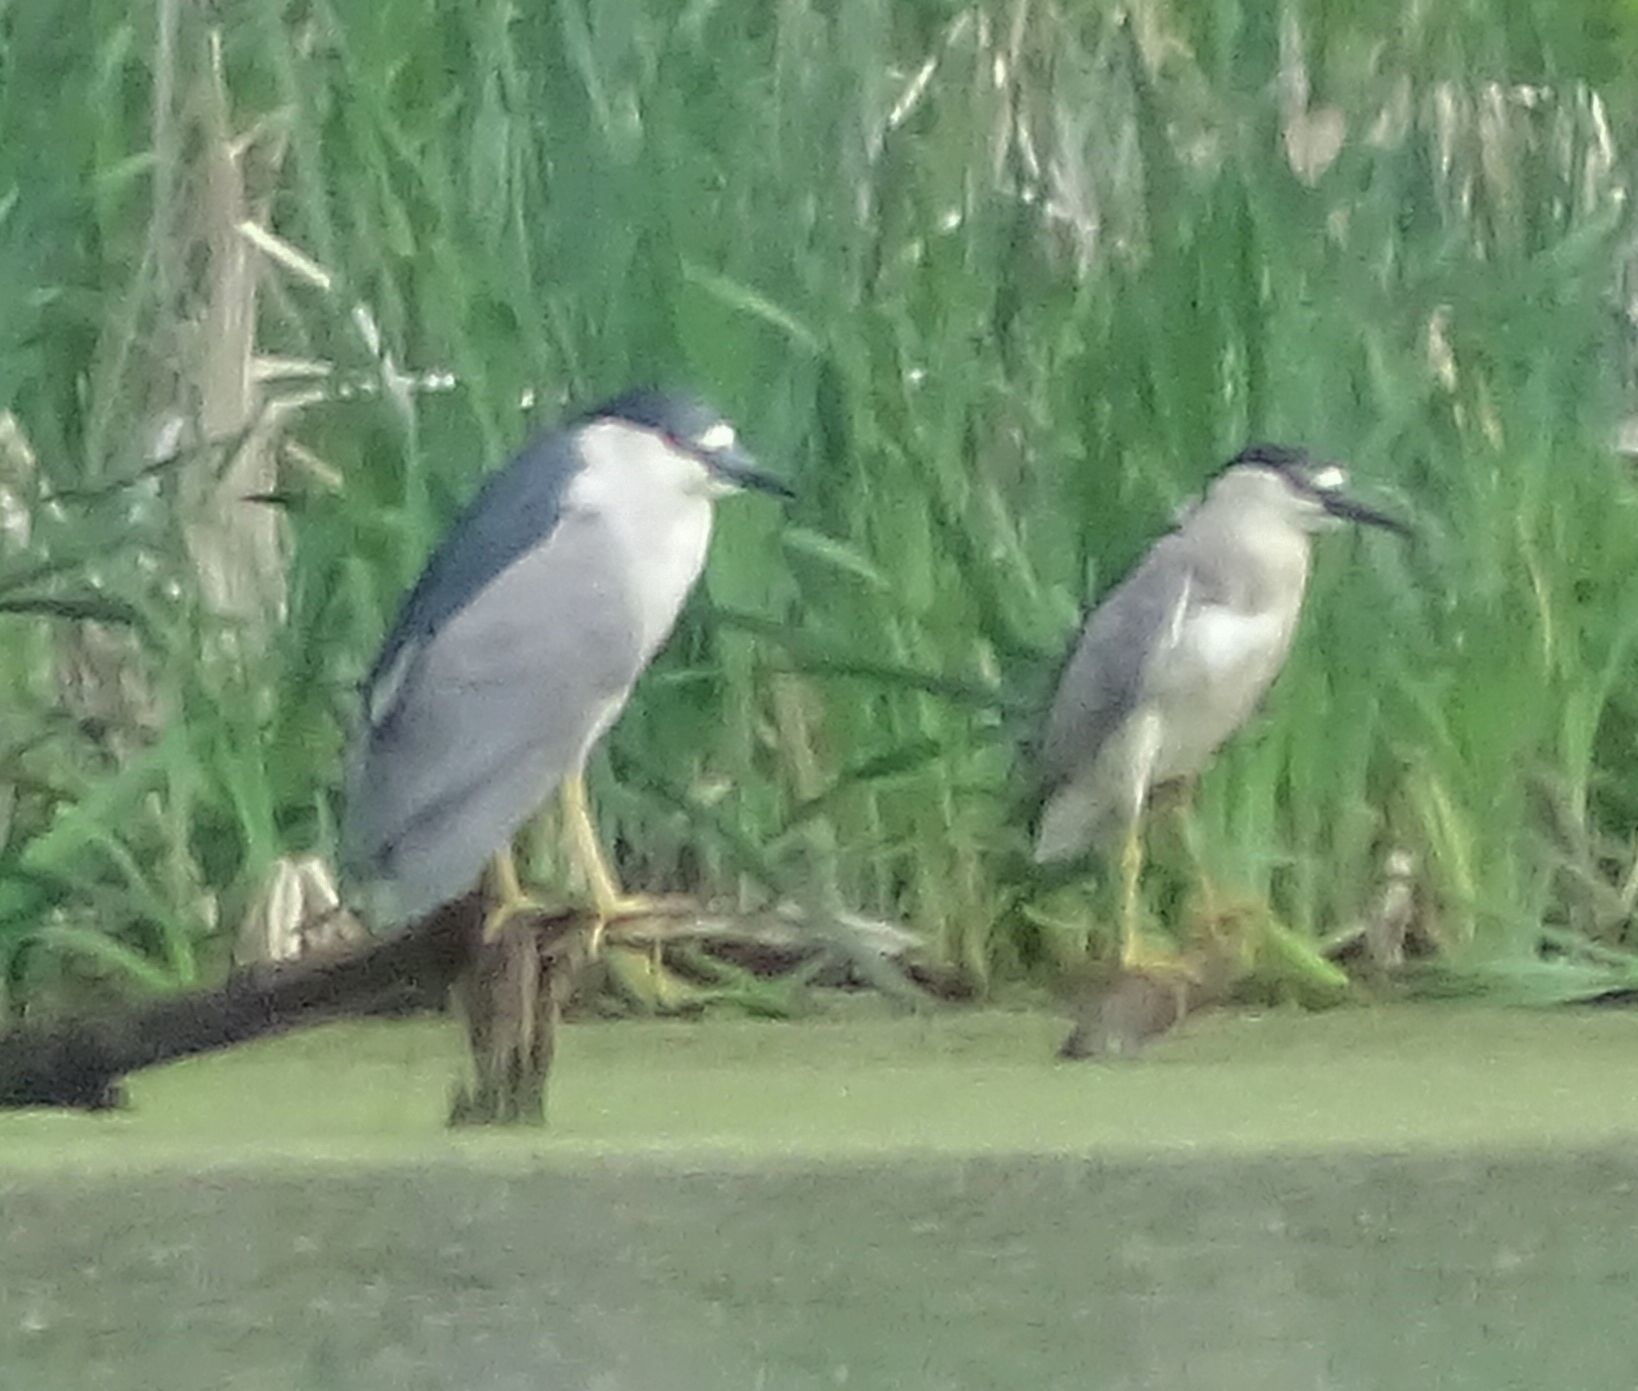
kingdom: Animalia
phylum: Chordata
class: Aves
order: Pelecaniformes
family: Ardeidae
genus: Nycticorax
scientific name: Nycticorax nycticorax
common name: Black-crowned night heron
